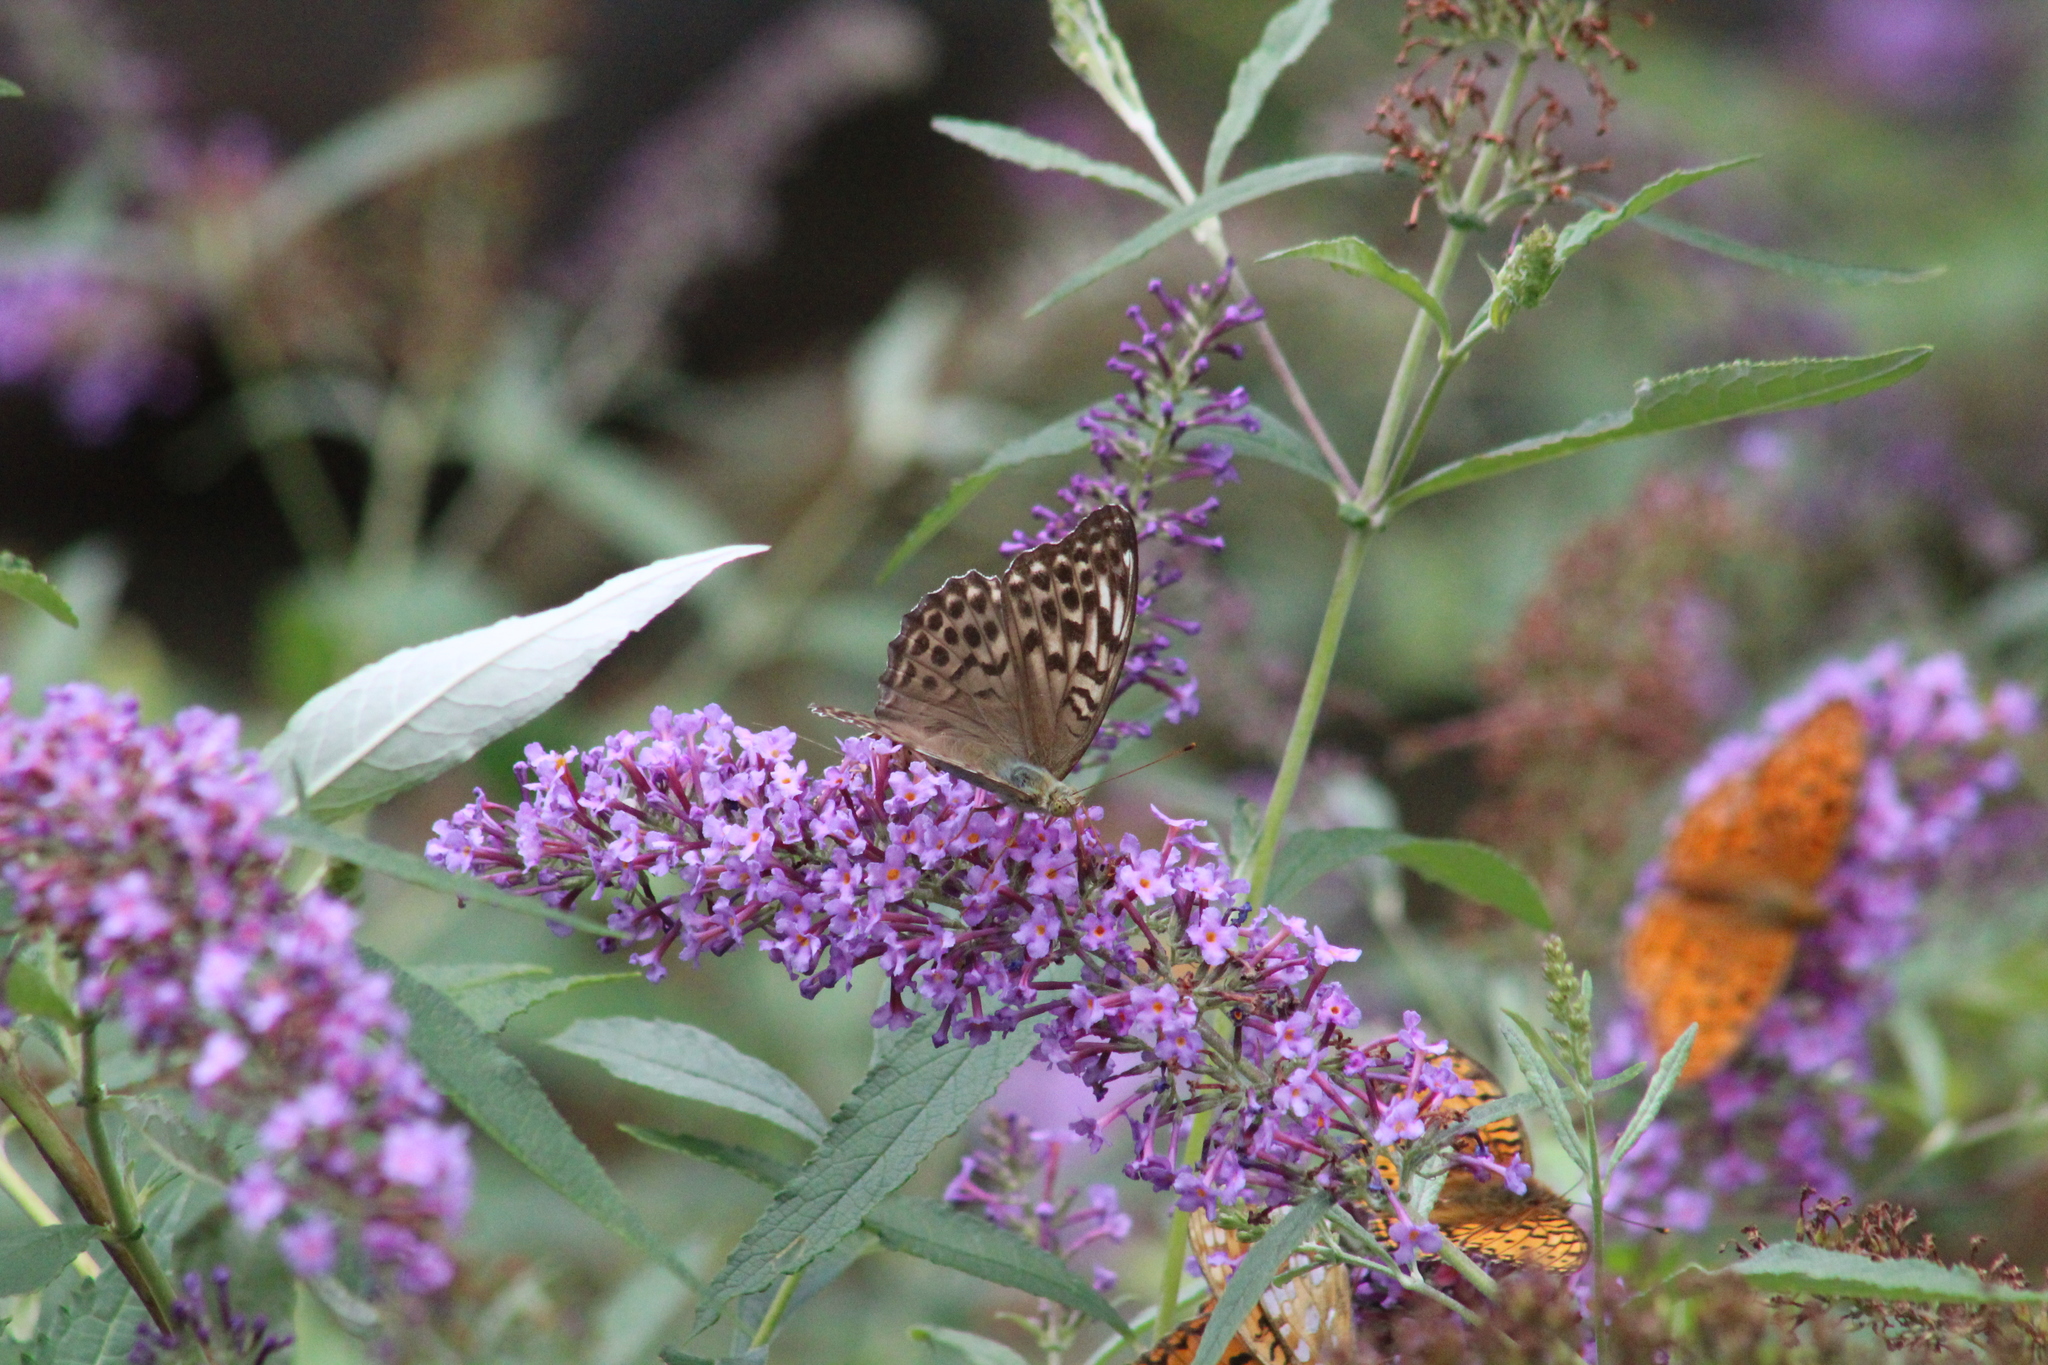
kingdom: Animalia
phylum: Arthropoda
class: Insecta
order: Lepidoptera
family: Nymphalidae
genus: Argynnis
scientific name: Argynnis paphia
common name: Silver-washed fritillary
